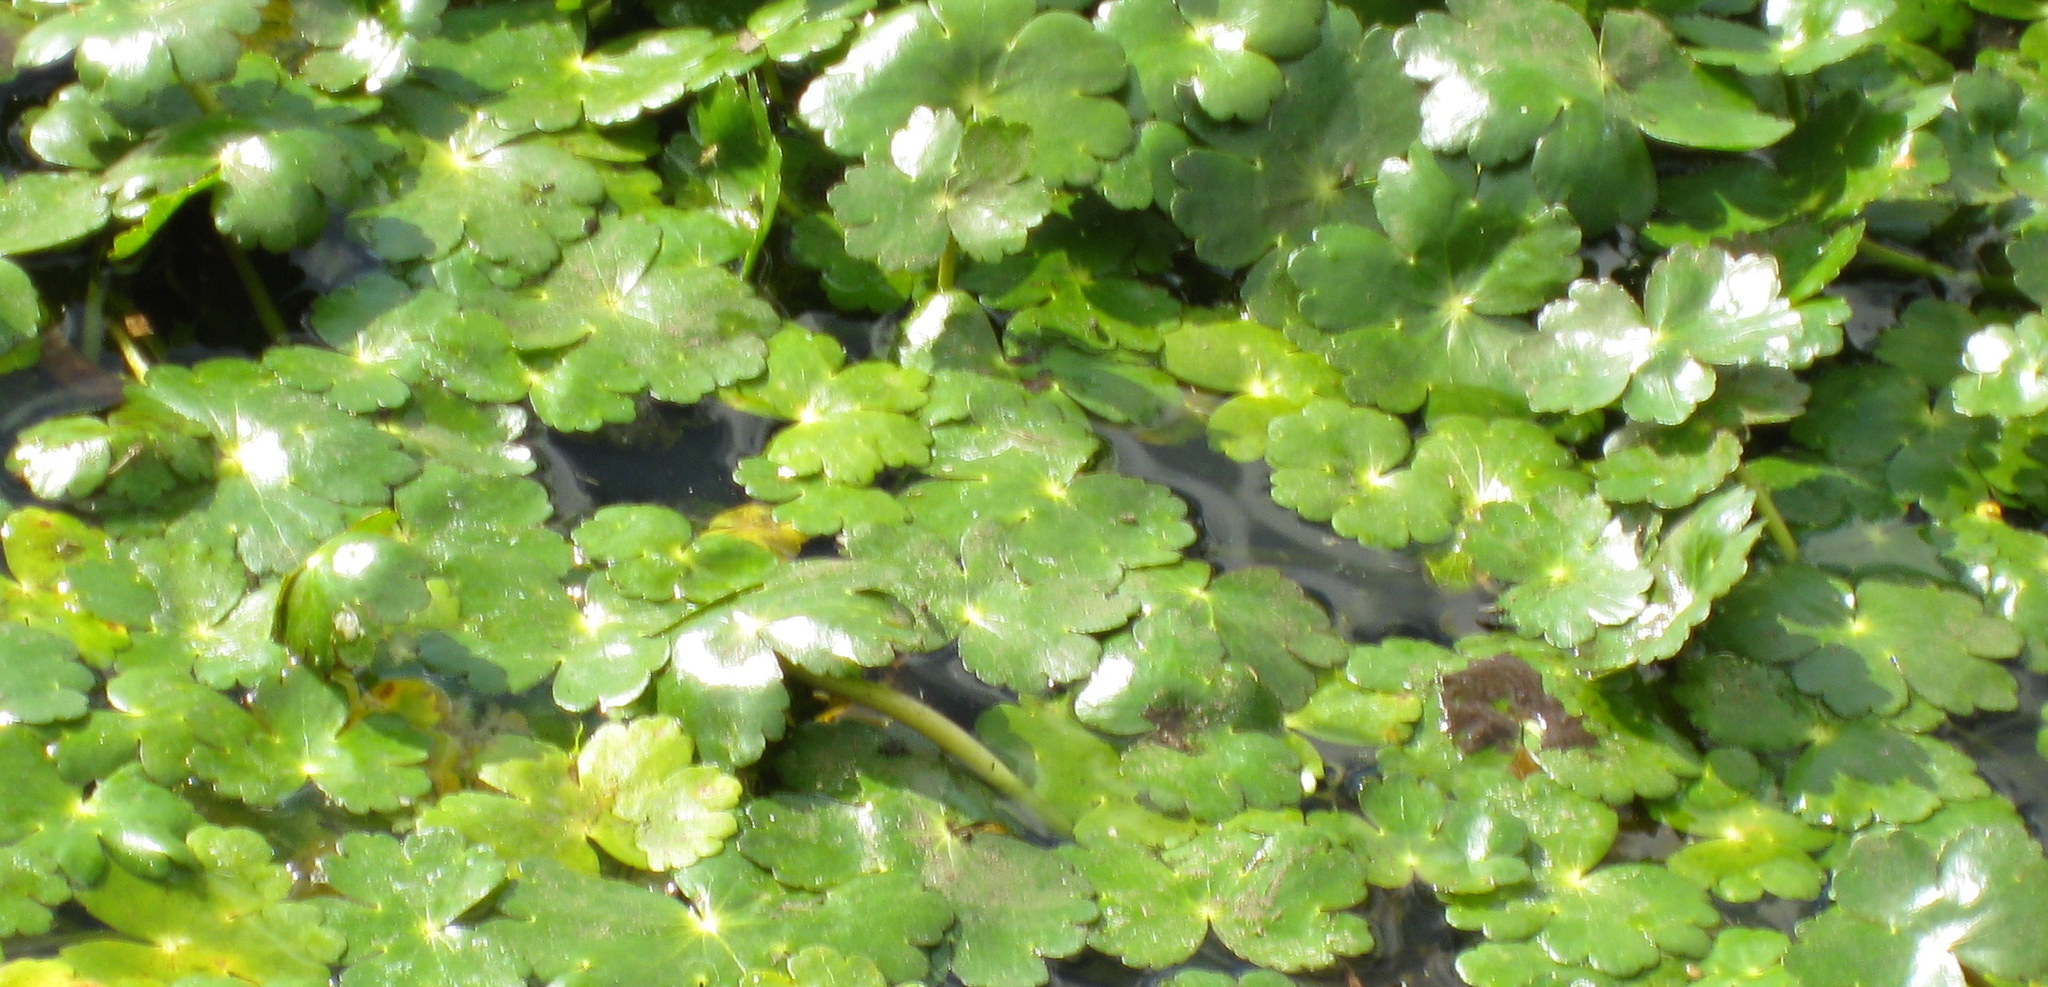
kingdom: Plantae
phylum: Tracheophyta
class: Magnoliopsida
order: Apiales
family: Araliaceae
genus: Hydrocotyle
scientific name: Hydrocotyle ranunculoides
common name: Floating pennywort
